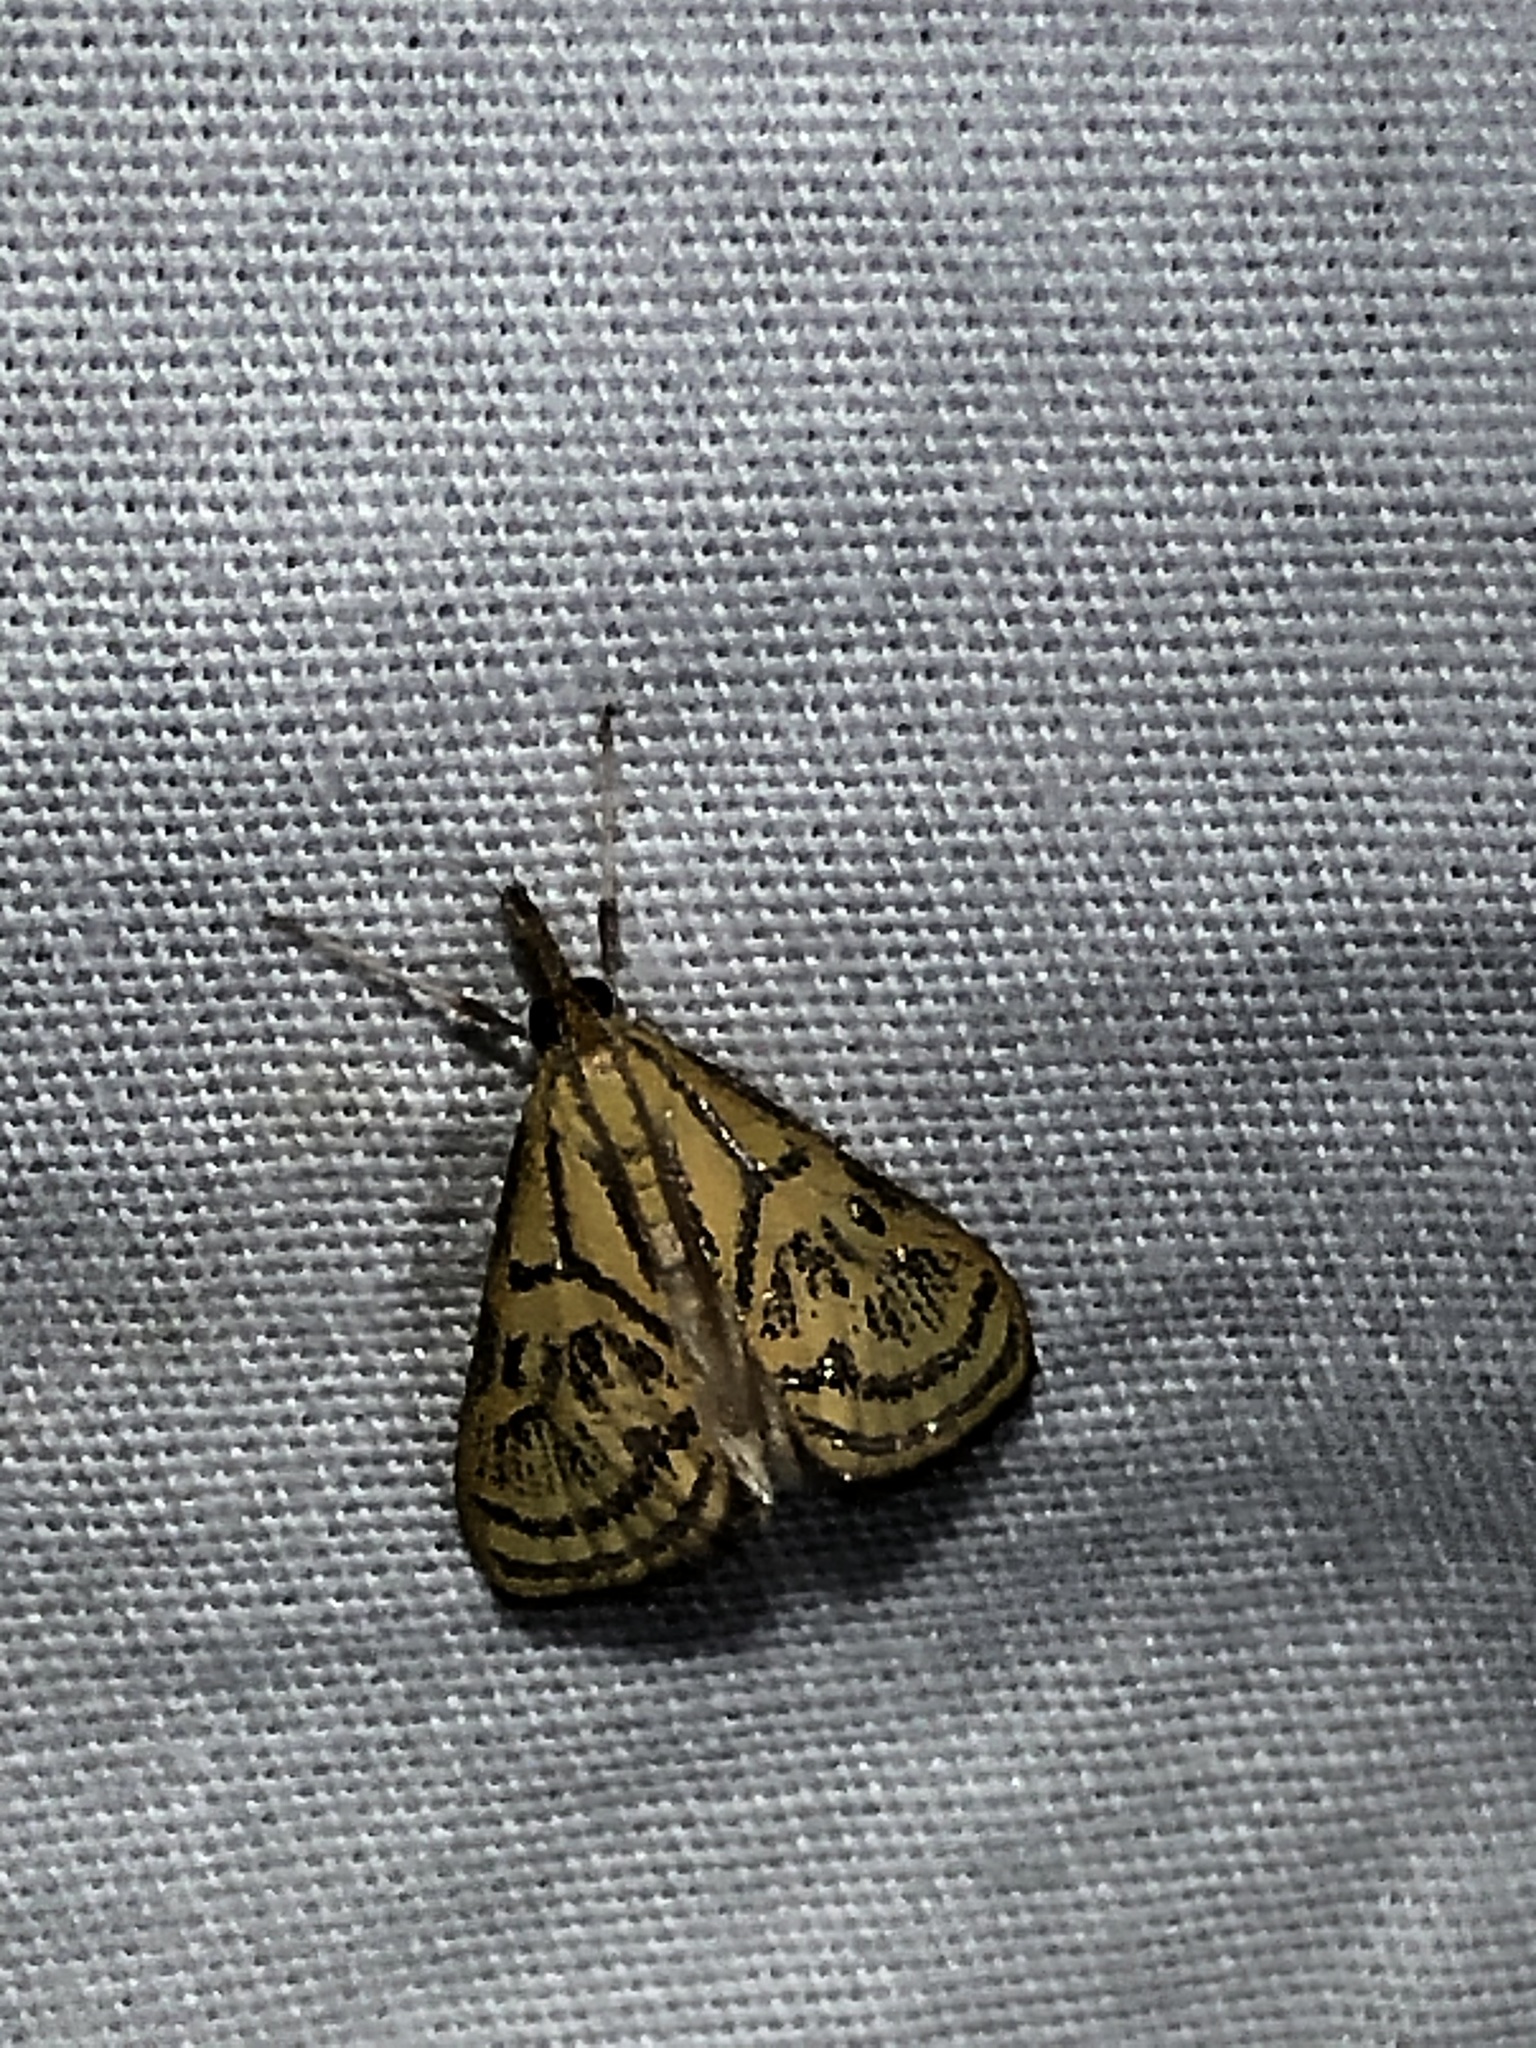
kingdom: Animalia
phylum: Arthropoda
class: Insecta
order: Lepidoptera
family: Crambidae
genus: Daulia
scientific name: Daulia arizonensis
